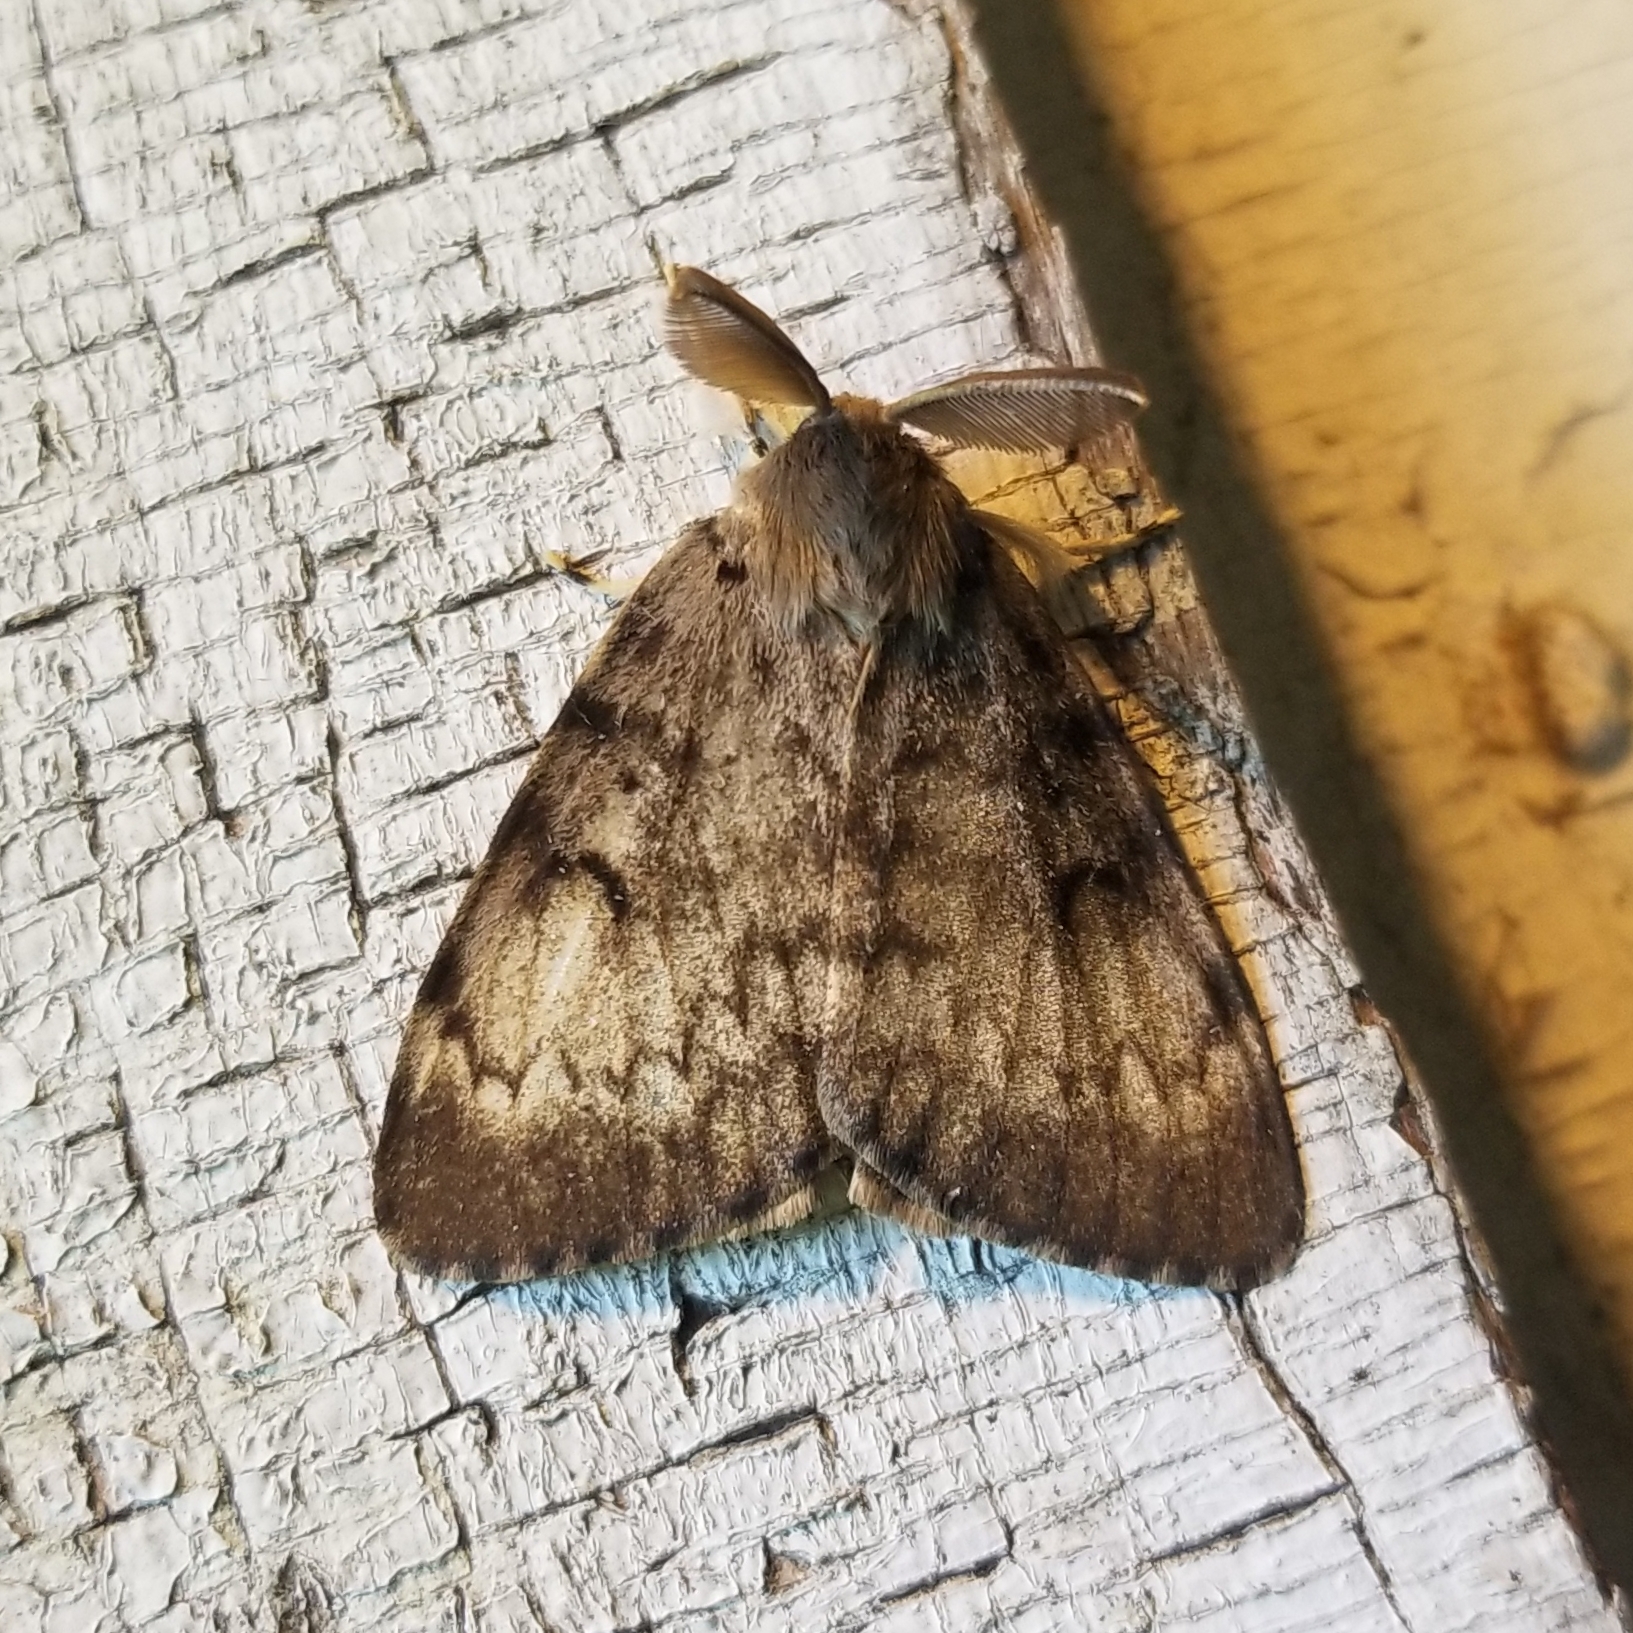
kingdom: Animalia
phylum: Arthropoda
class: Insecta
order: Lepidoptera
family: Erebidae
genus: Lymantria
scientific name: Lymantria dispar
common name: Gypsy moth
